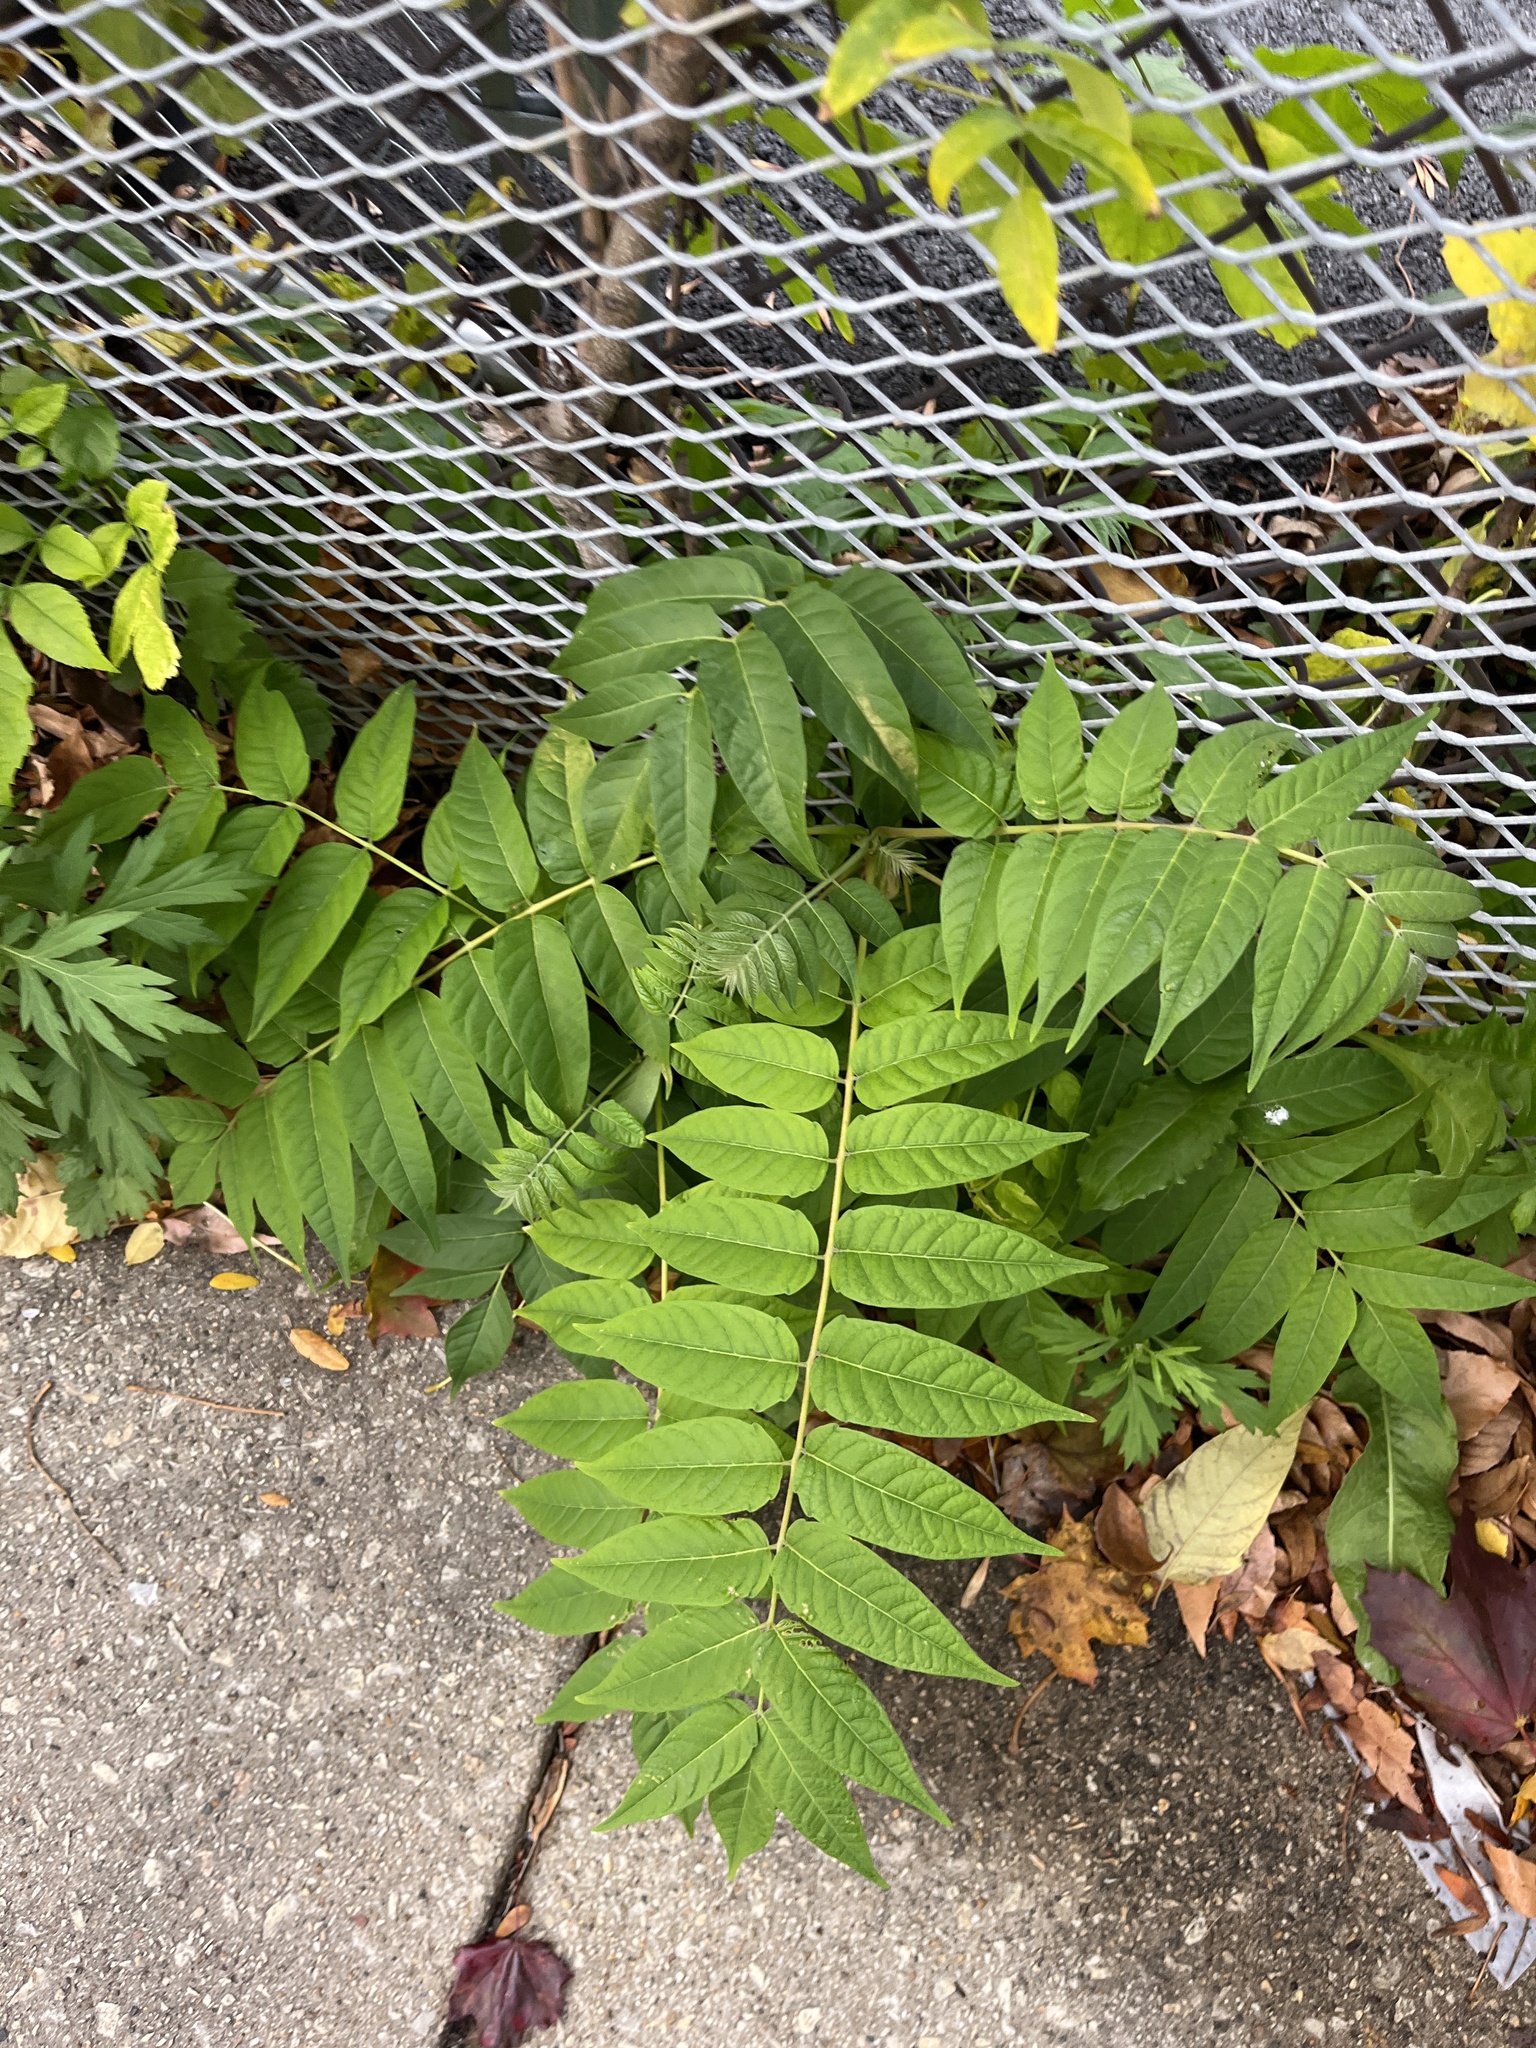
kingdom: Plantae
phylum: Tracheophyta
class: Magnoliopsida
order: Sapindales
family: Simaroubaceae
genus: Ailanthus
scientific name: Ailanthus altissima
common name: Tree-of-heaven
